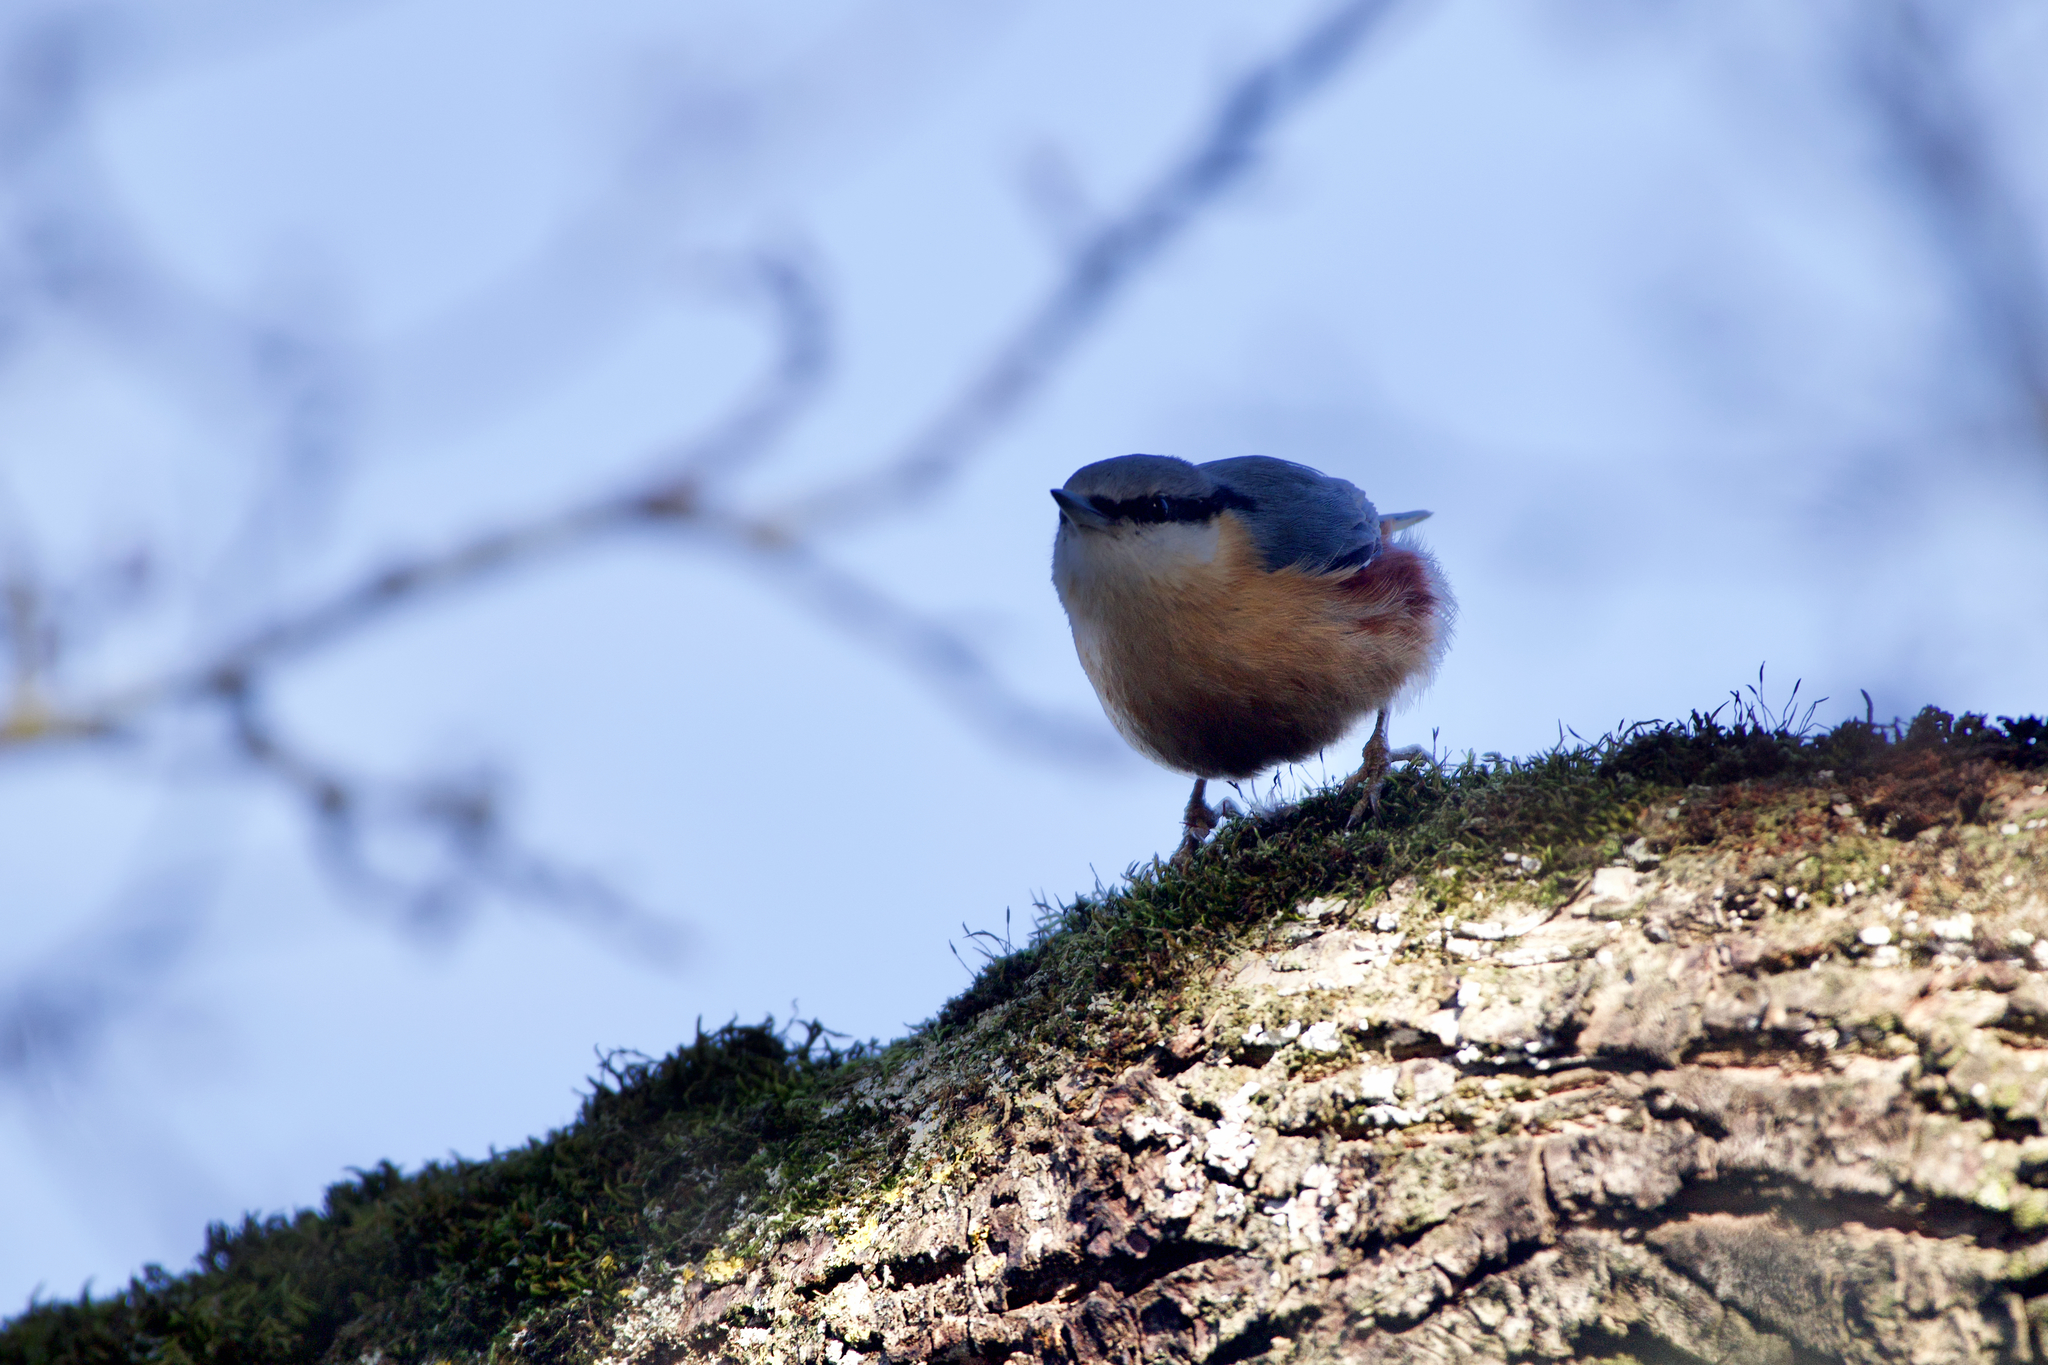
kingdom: Animalia
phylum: Chordata
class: Aves
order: Passeriformes
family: Sittidae
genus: Sitta
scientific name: Sitta europaea
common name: Eurasian nuthatch
